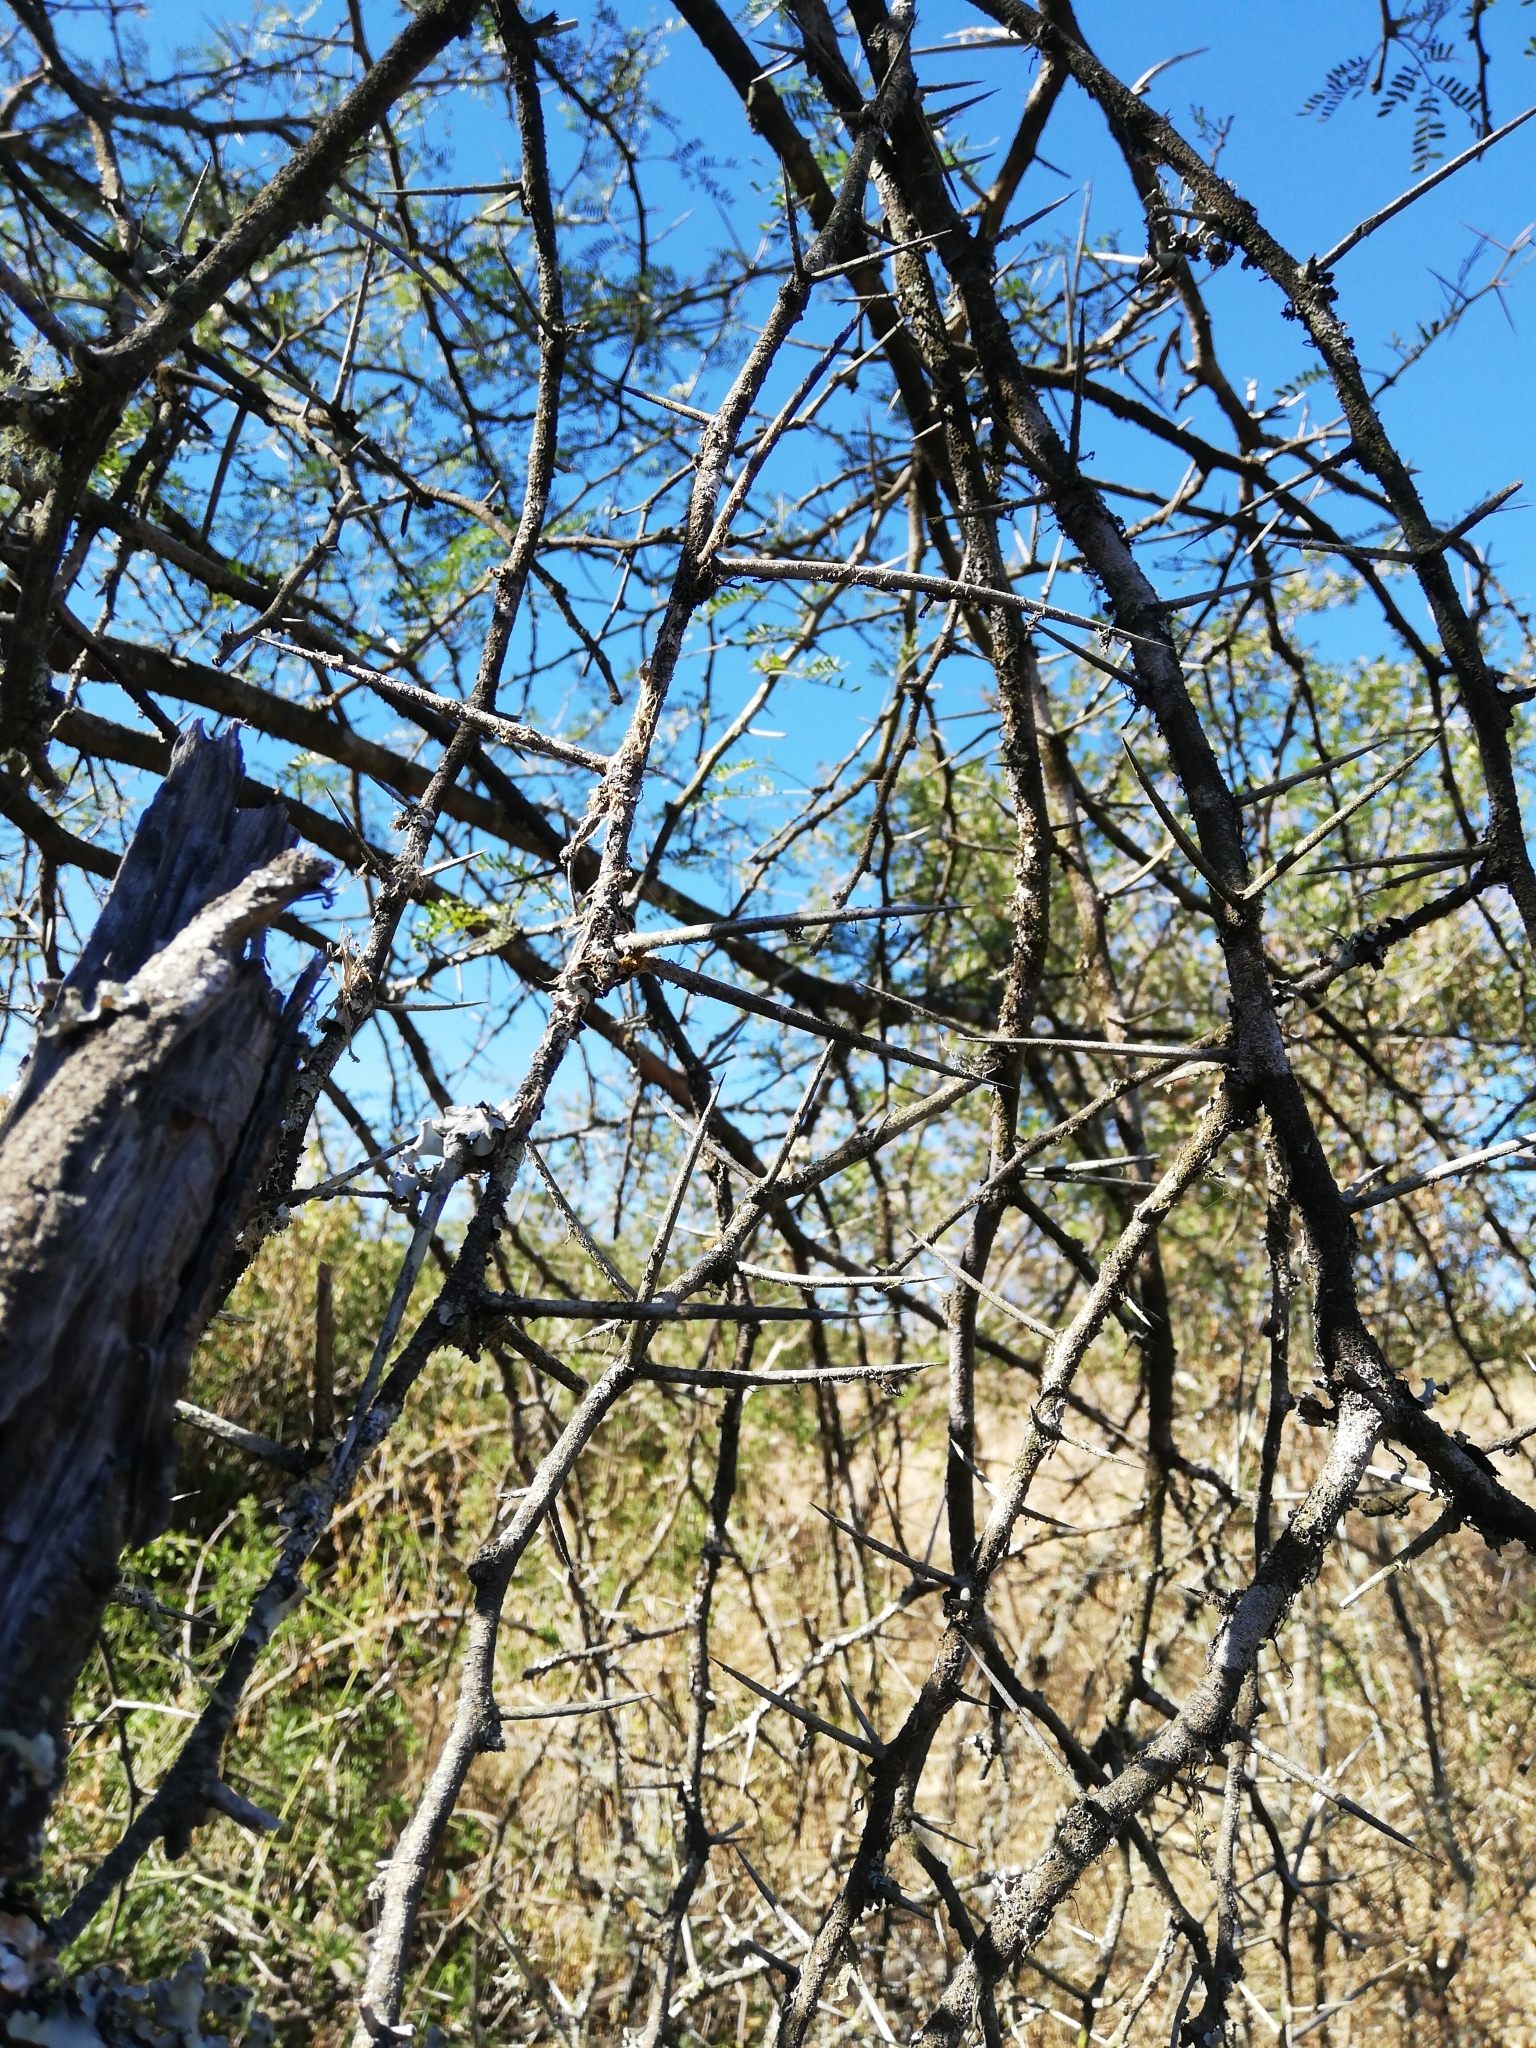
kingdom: Plantae
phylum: Tracheophyta
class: Magnoliopsida
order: Fabales
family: Fabaceae
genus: Vachellia
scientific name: Vachellia karroo
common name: Sweet thorn
